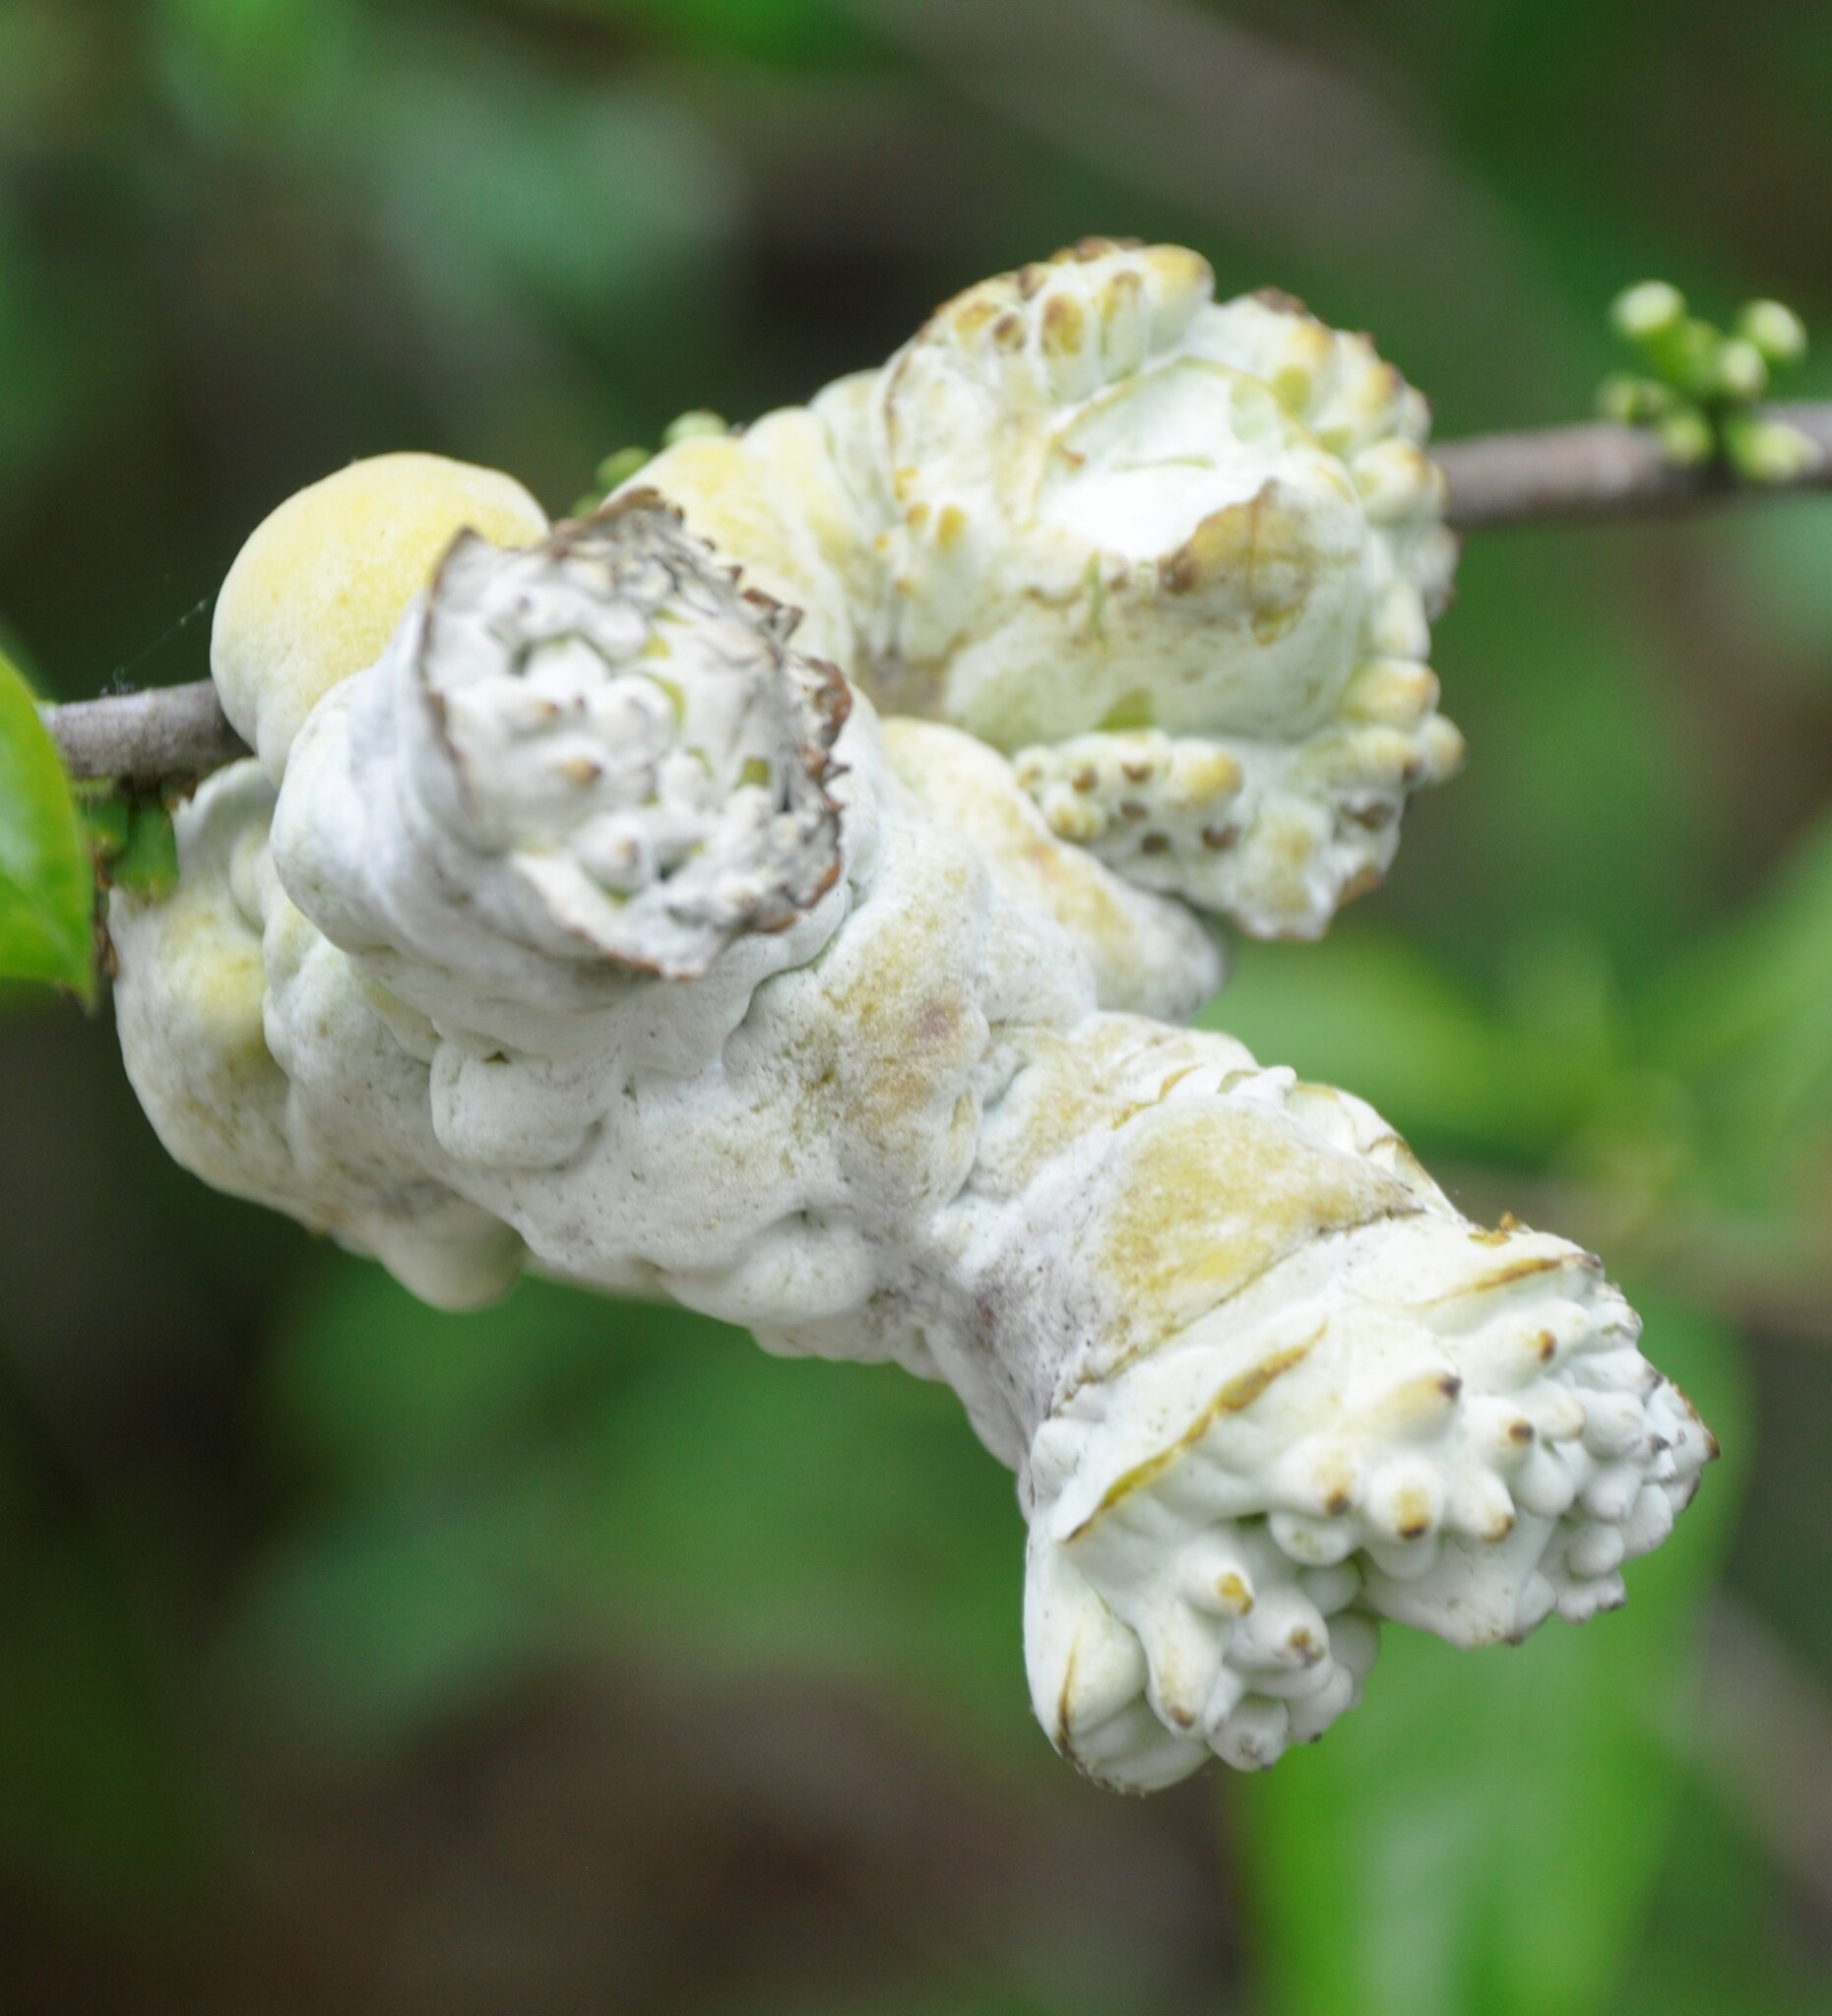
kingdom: Fungi
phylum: Basidiomycota
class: Exobasidiomycetes
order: Exobasidiales
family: Exobasidiaceae
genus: Exobasidium
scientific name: Exobasidium symploci
